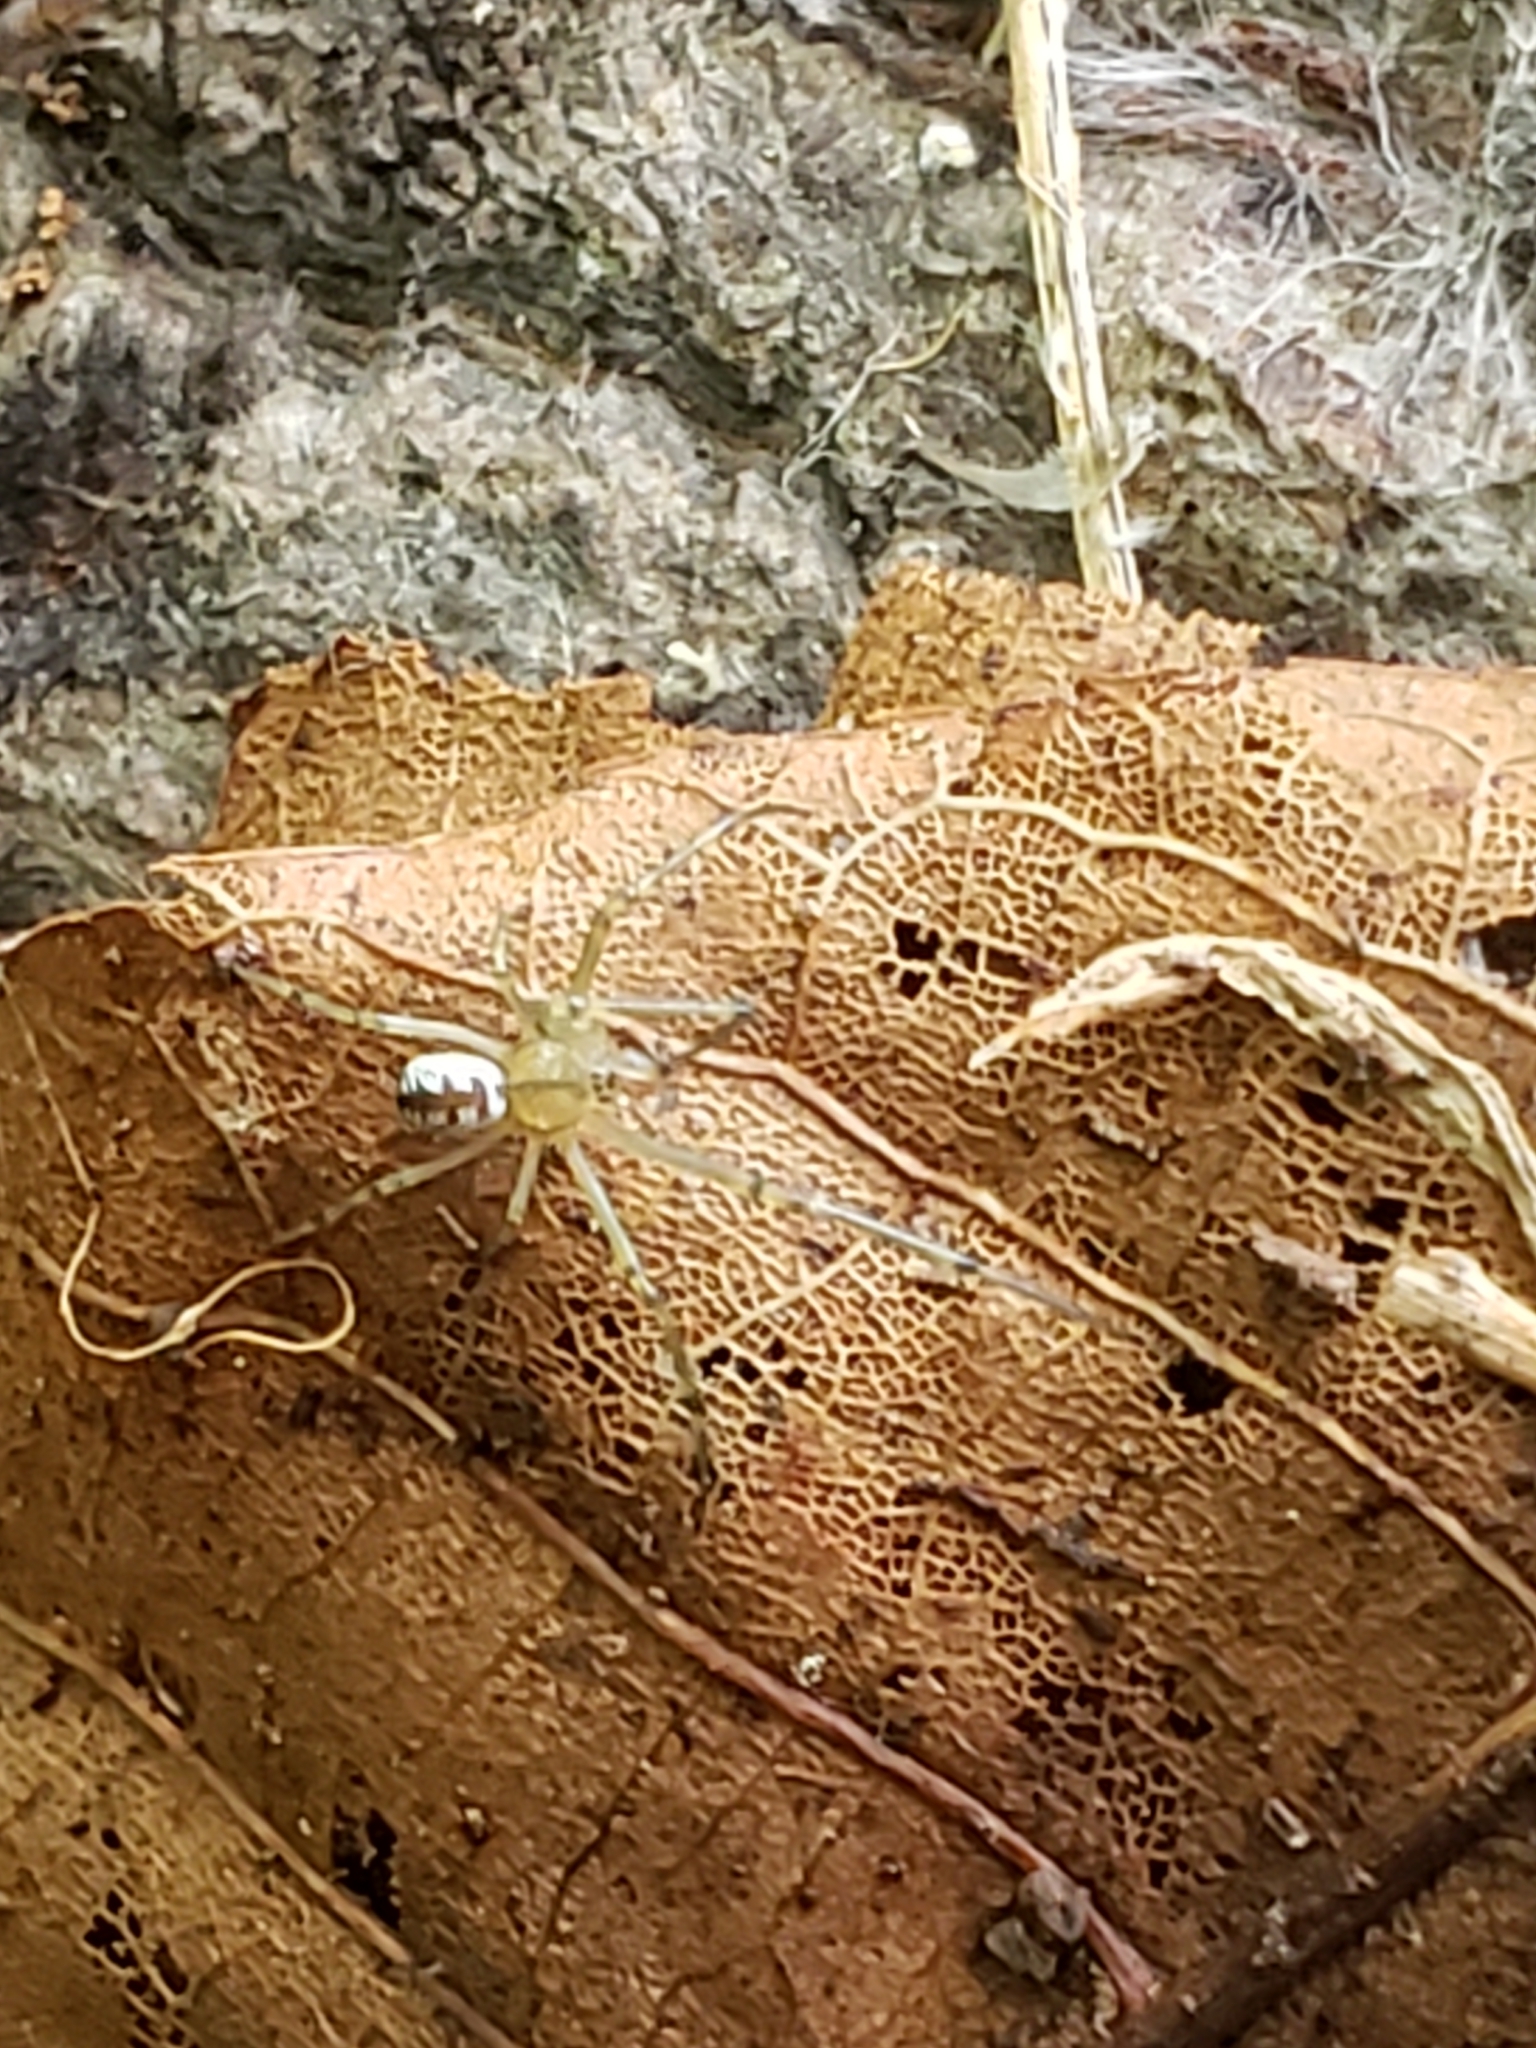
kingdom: Animalia
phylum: Arthropoda
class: Arachnida
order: Araneae
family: Tetragnathidae
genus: Leucauge
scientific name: Leucauge venusta
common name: Longjawed orb weavers
